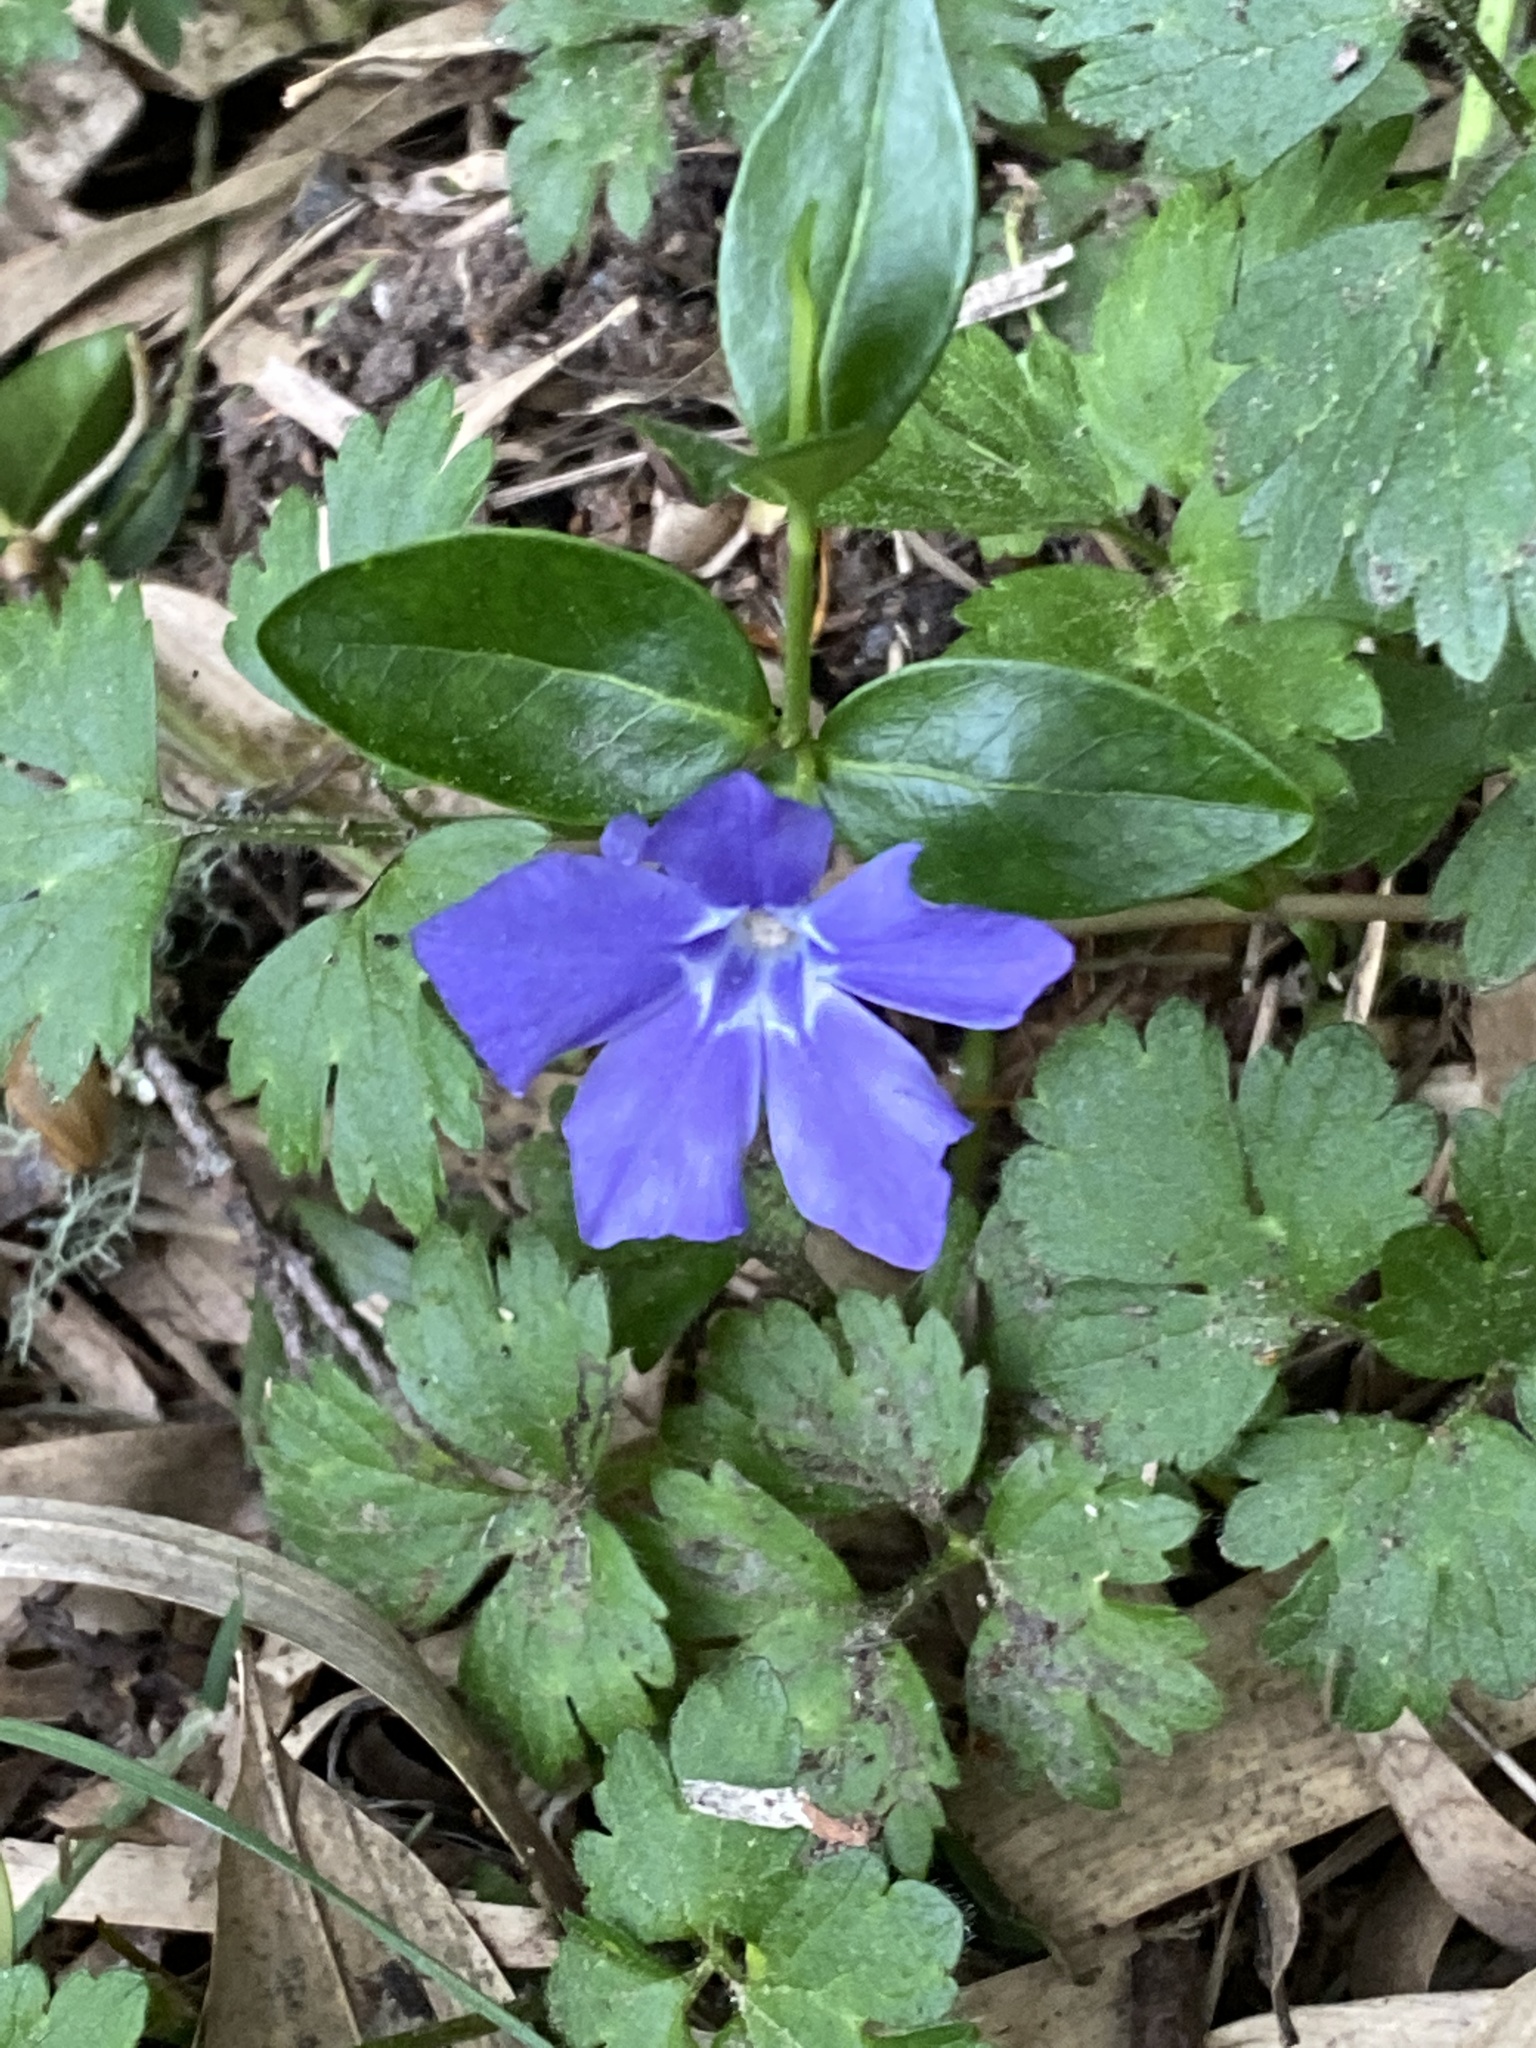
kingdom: Plantae
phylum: Tracheophyta
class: Magnoliopsida
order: Gentianales
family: Apocynaceae
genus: Vinca
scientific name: Vinca minor
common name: Lesser periwinkle
